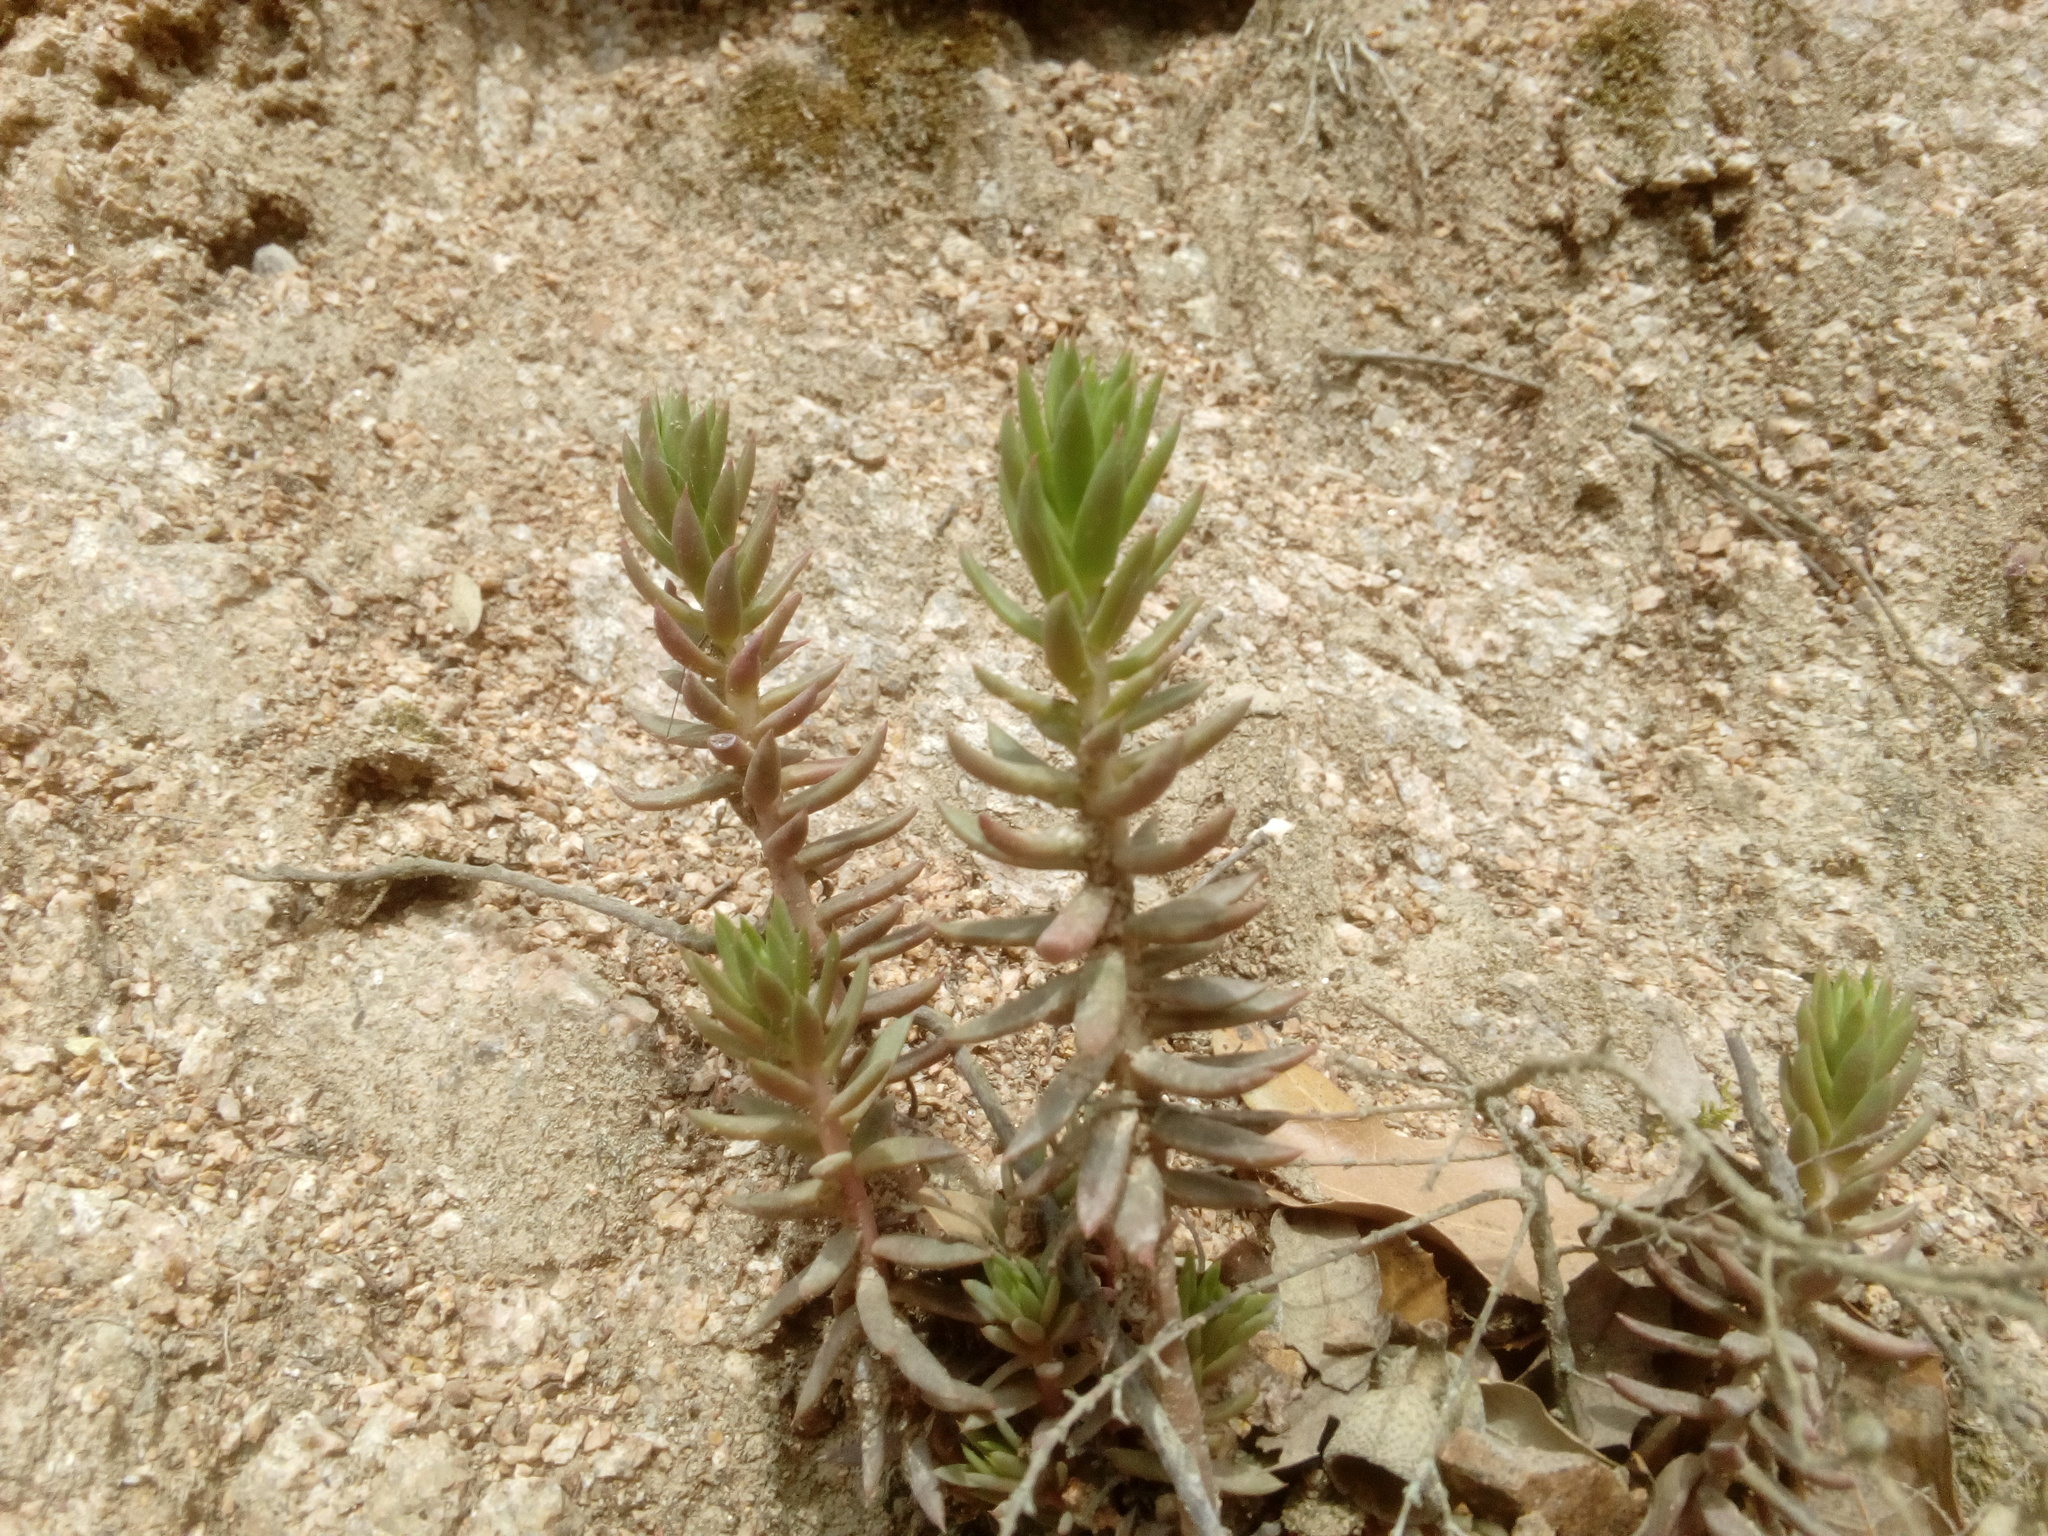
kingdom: Plantae
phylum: Tracheophyta
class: Magnoliopsida
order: Saxifragales
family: Crassulaceae
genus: Petrosedum
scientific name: Petrosedum sediforme
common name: Pale stonecrop
